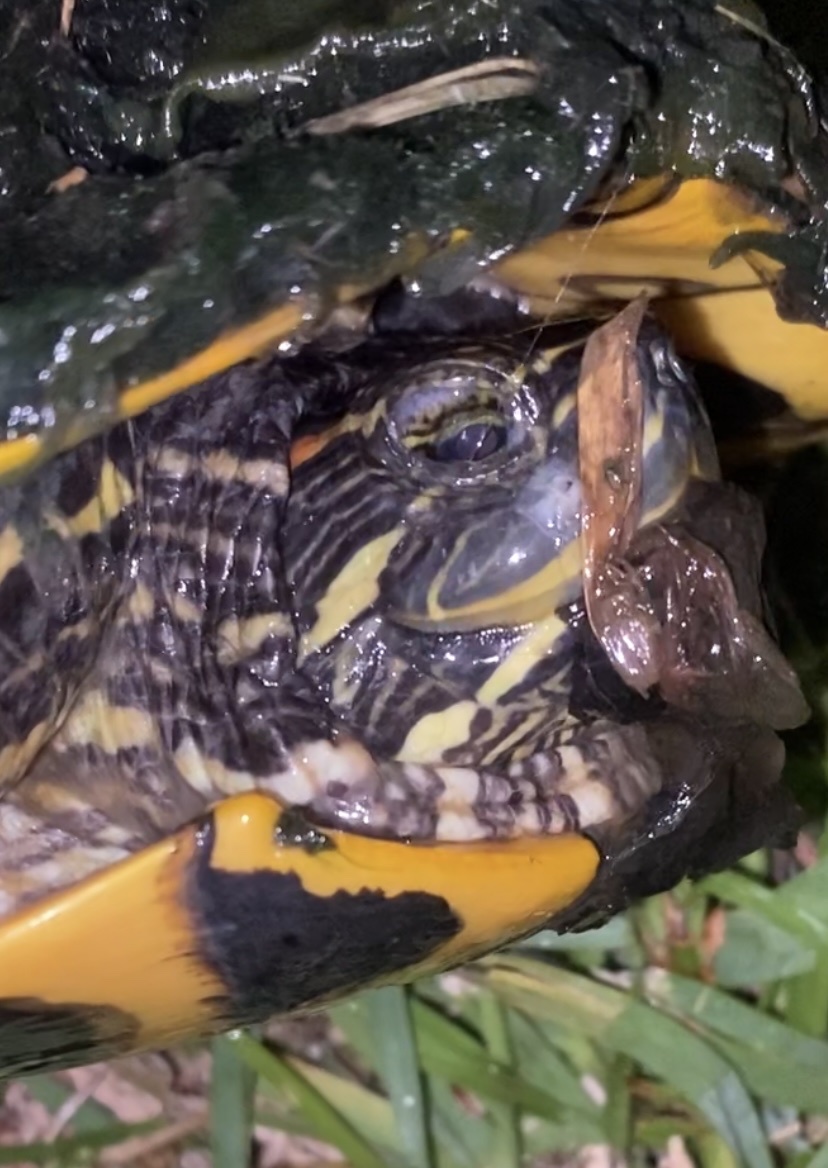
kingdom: Animalia
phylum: Chordata
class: Testudines
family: Emydidae
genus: Trachemys
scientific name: Trachemys scripta
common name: Slider
